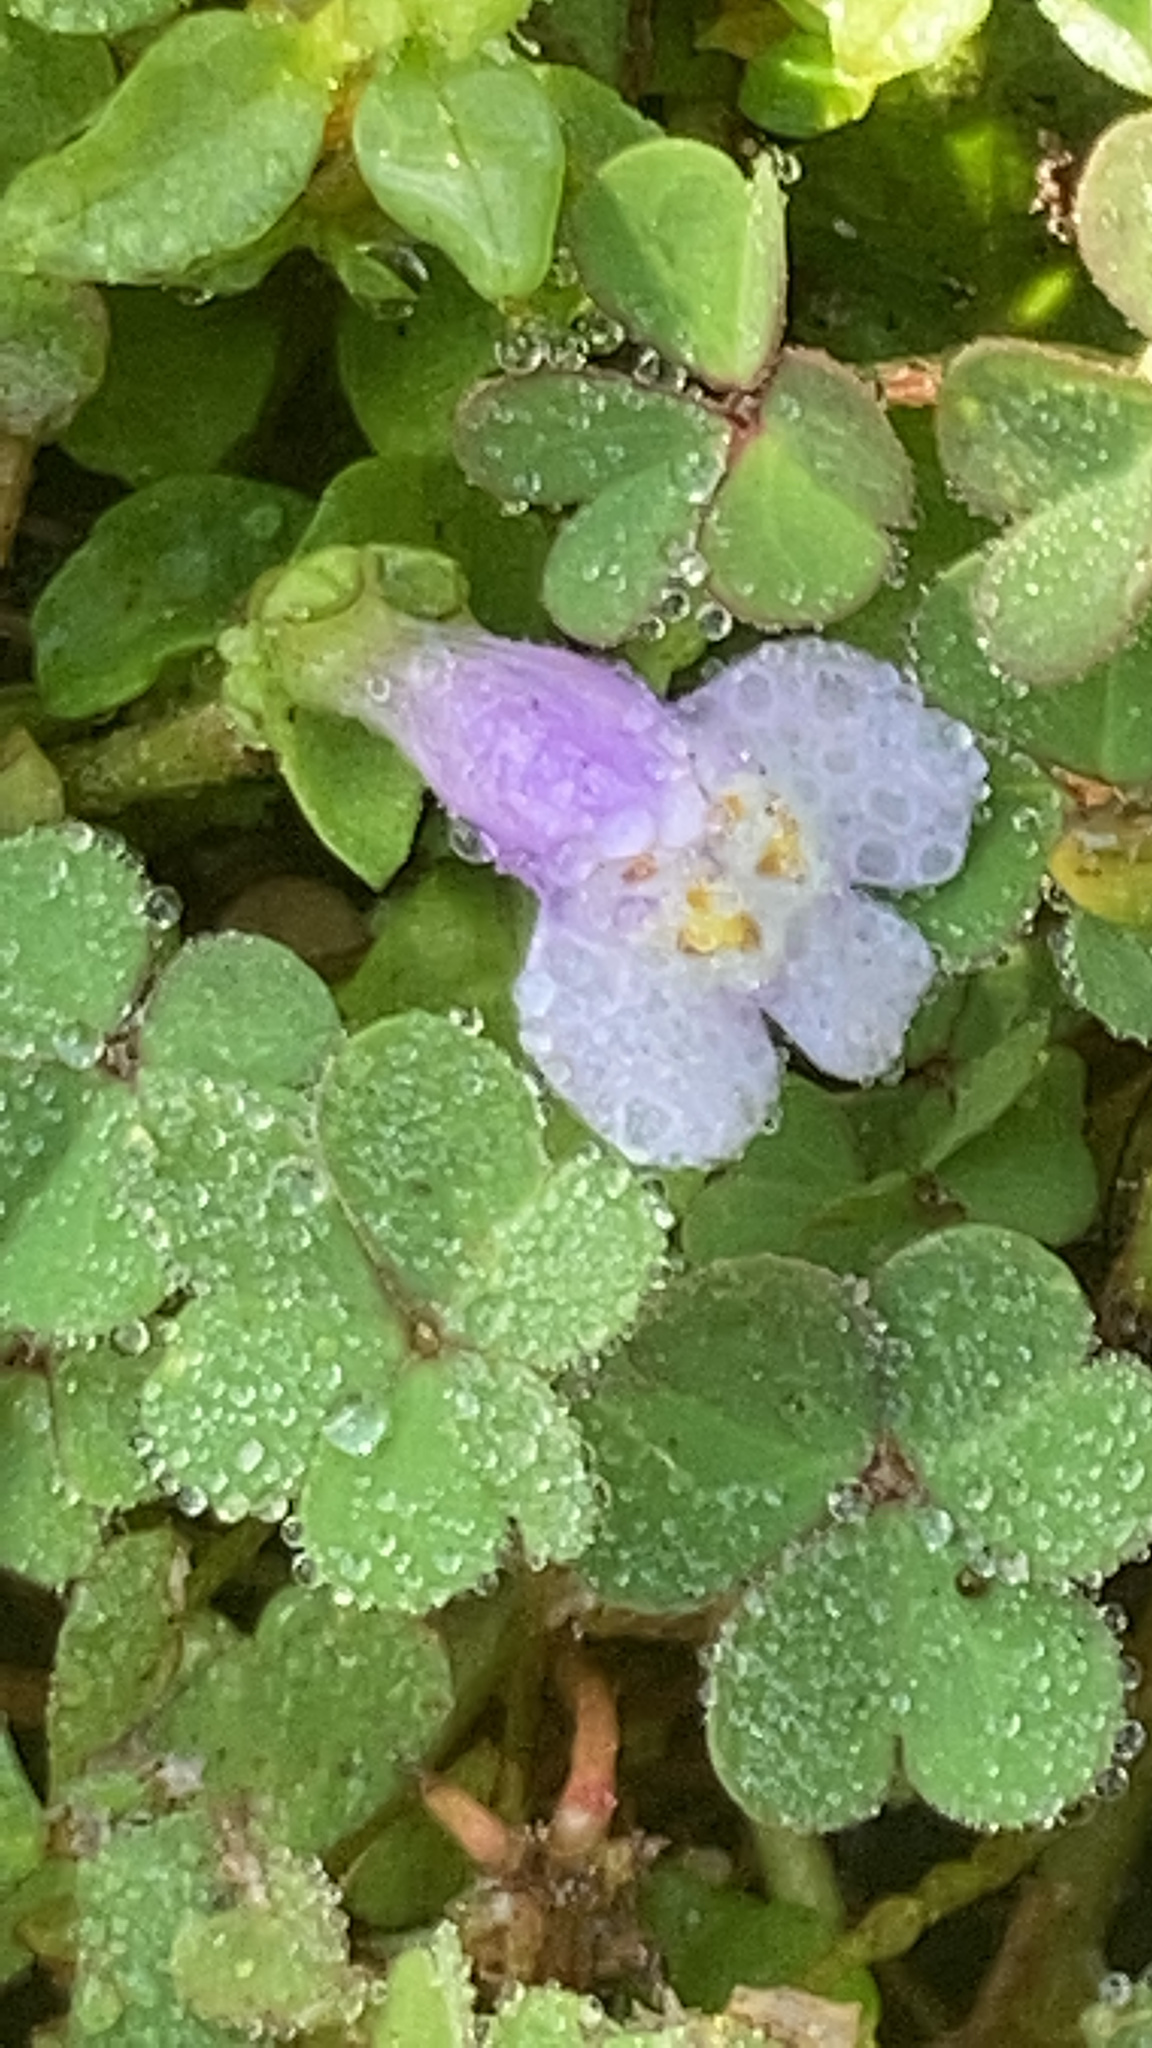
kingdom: Plantae
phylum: Tracheophyta
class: Magnoliopsida
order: Lamiales
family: Mazaceae
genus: Mazus
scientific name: Mazus pumilus
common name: Japanese mazus
